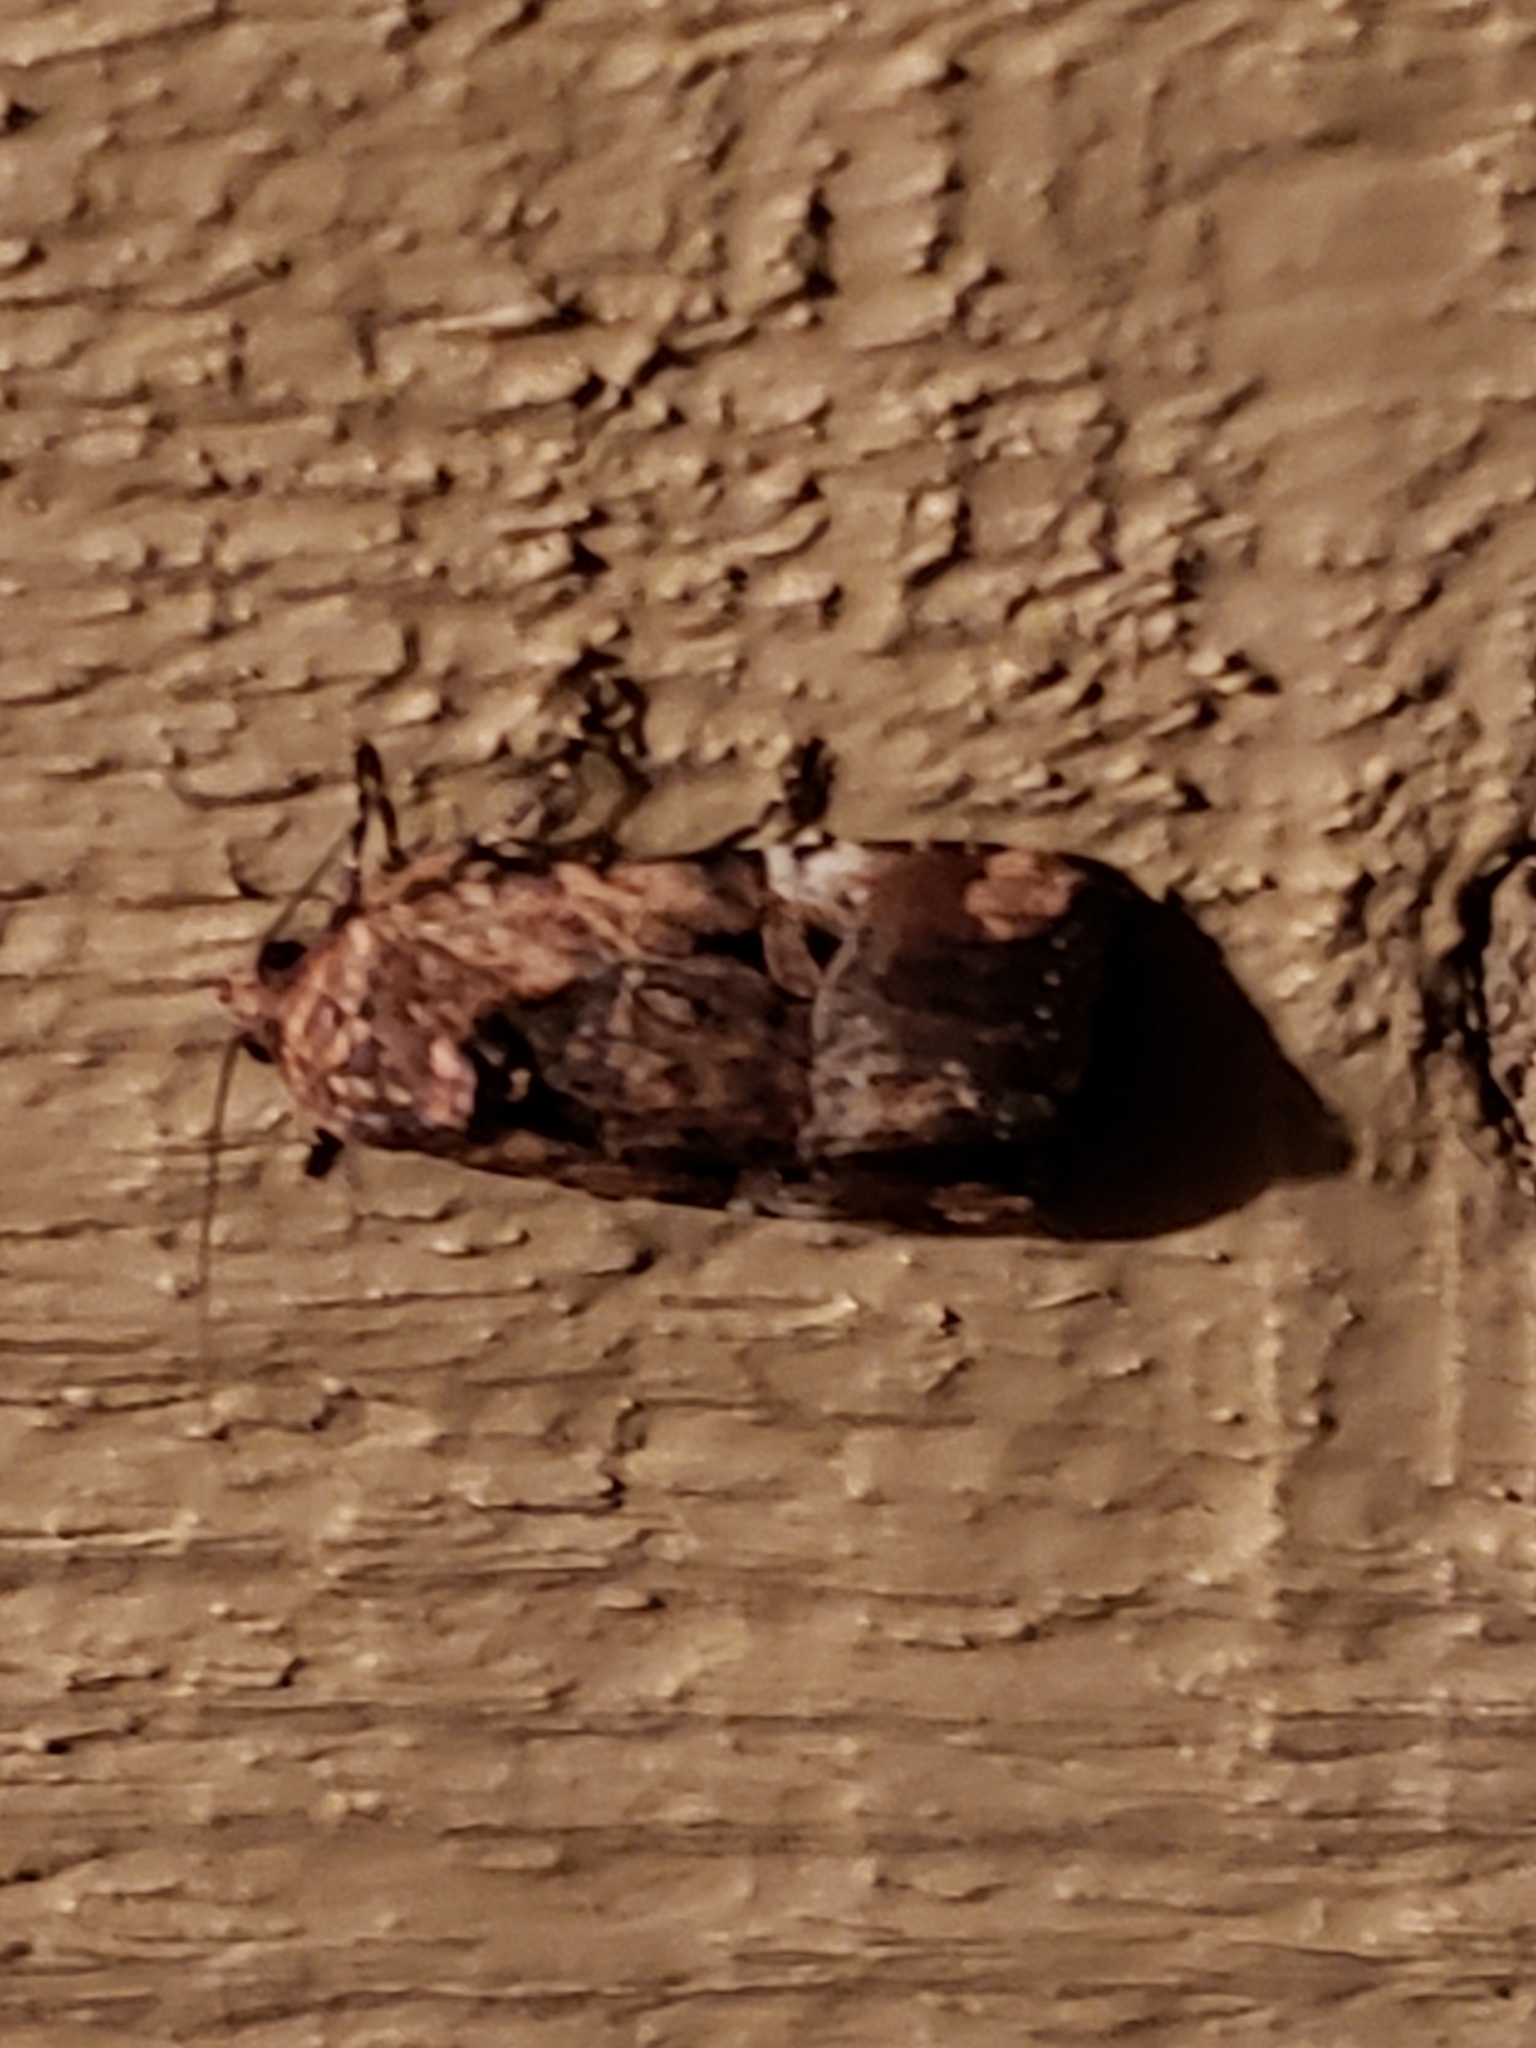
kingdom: Animalia
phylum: Arthropoda
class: Insecta
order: Lepidoptera
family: Noctuidae
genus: Elaphria
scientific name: Elaphria chalcedonia
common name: Chalcedony midget
